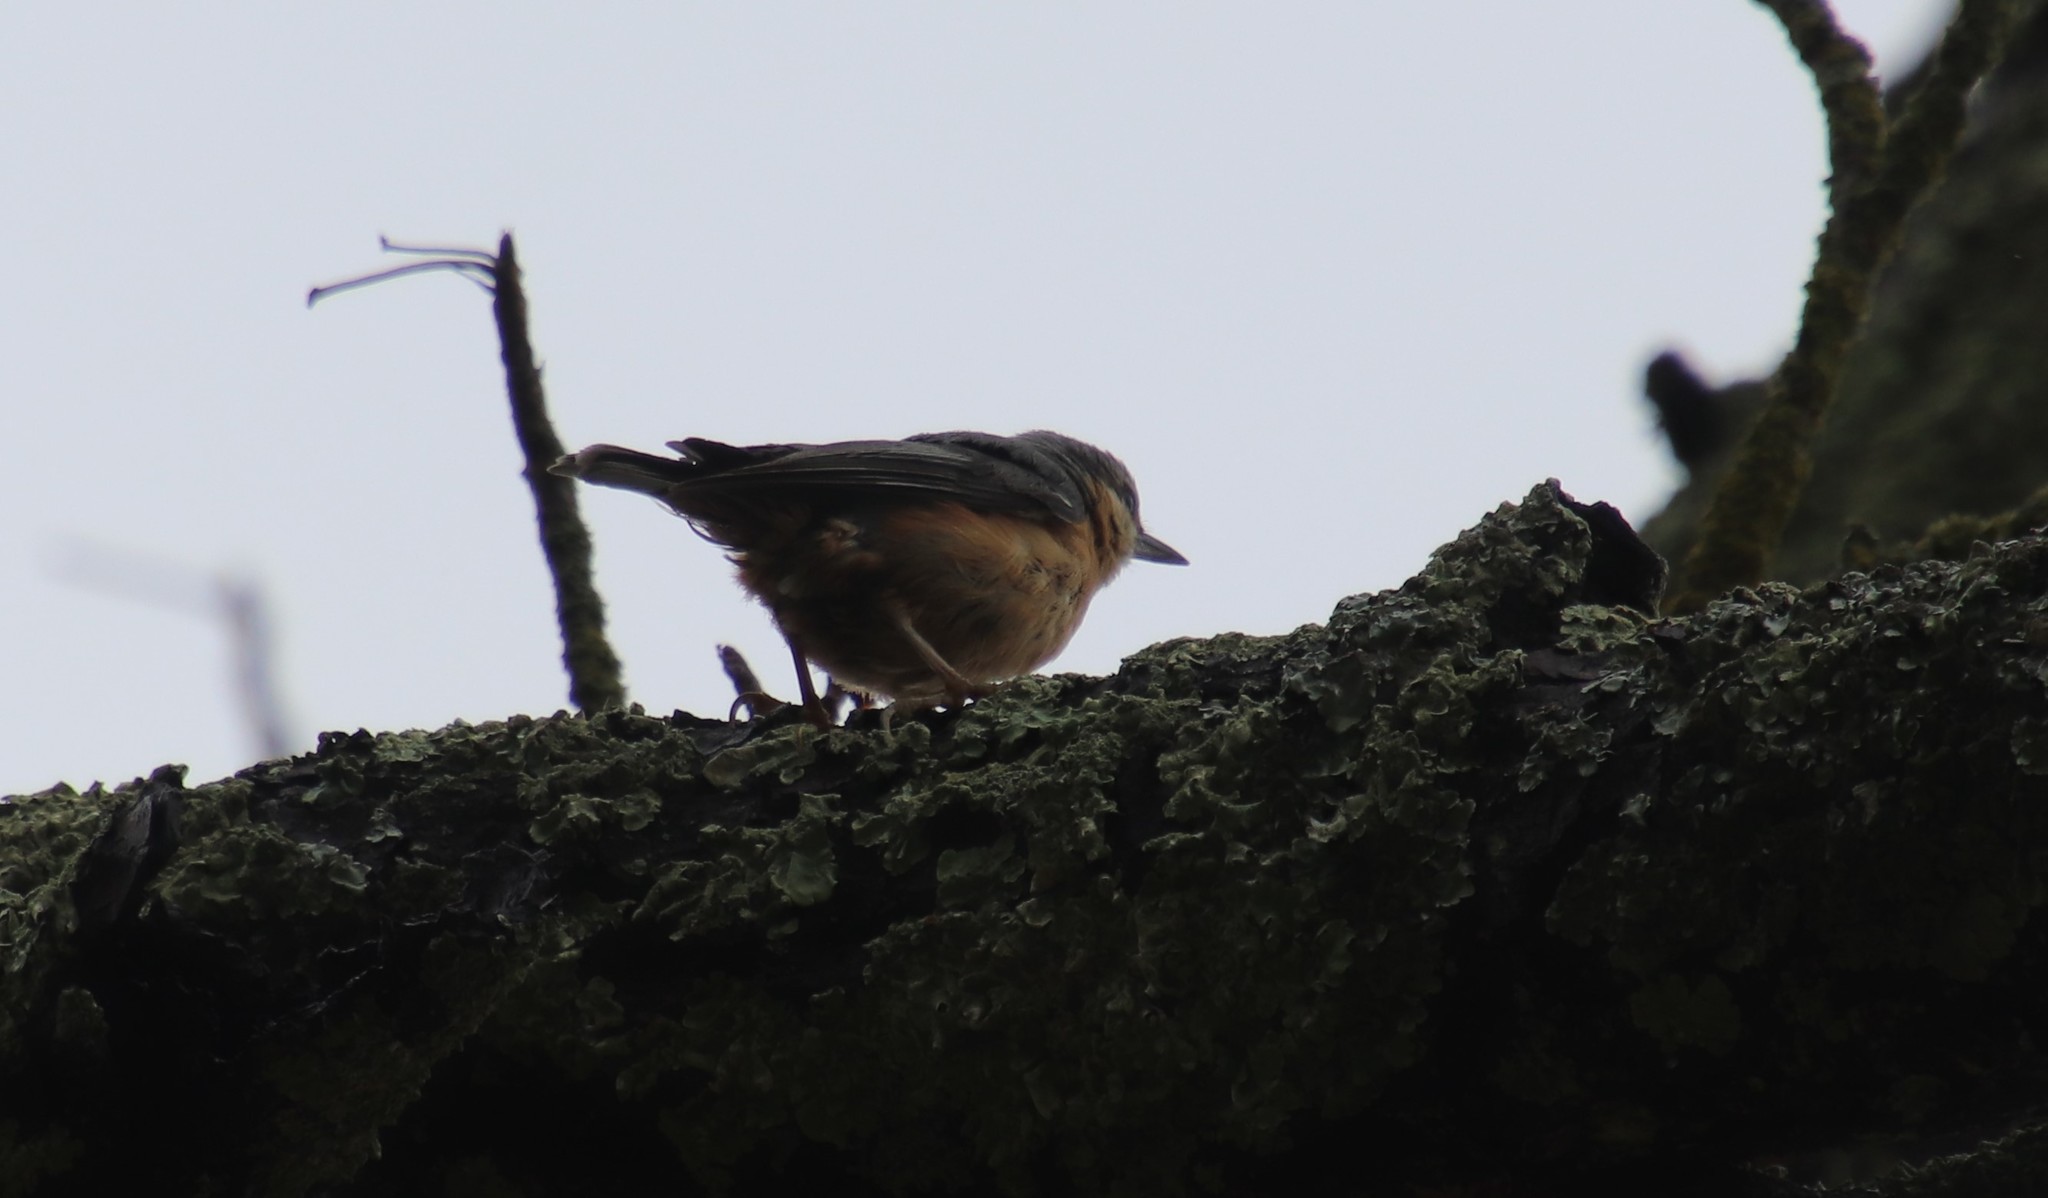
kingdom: Animalia
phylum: Chordata
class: Aves
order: Passeriformes
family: Sittidae
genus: Sitta
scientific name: Sitta europaea
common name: Eurasian nuthatch
